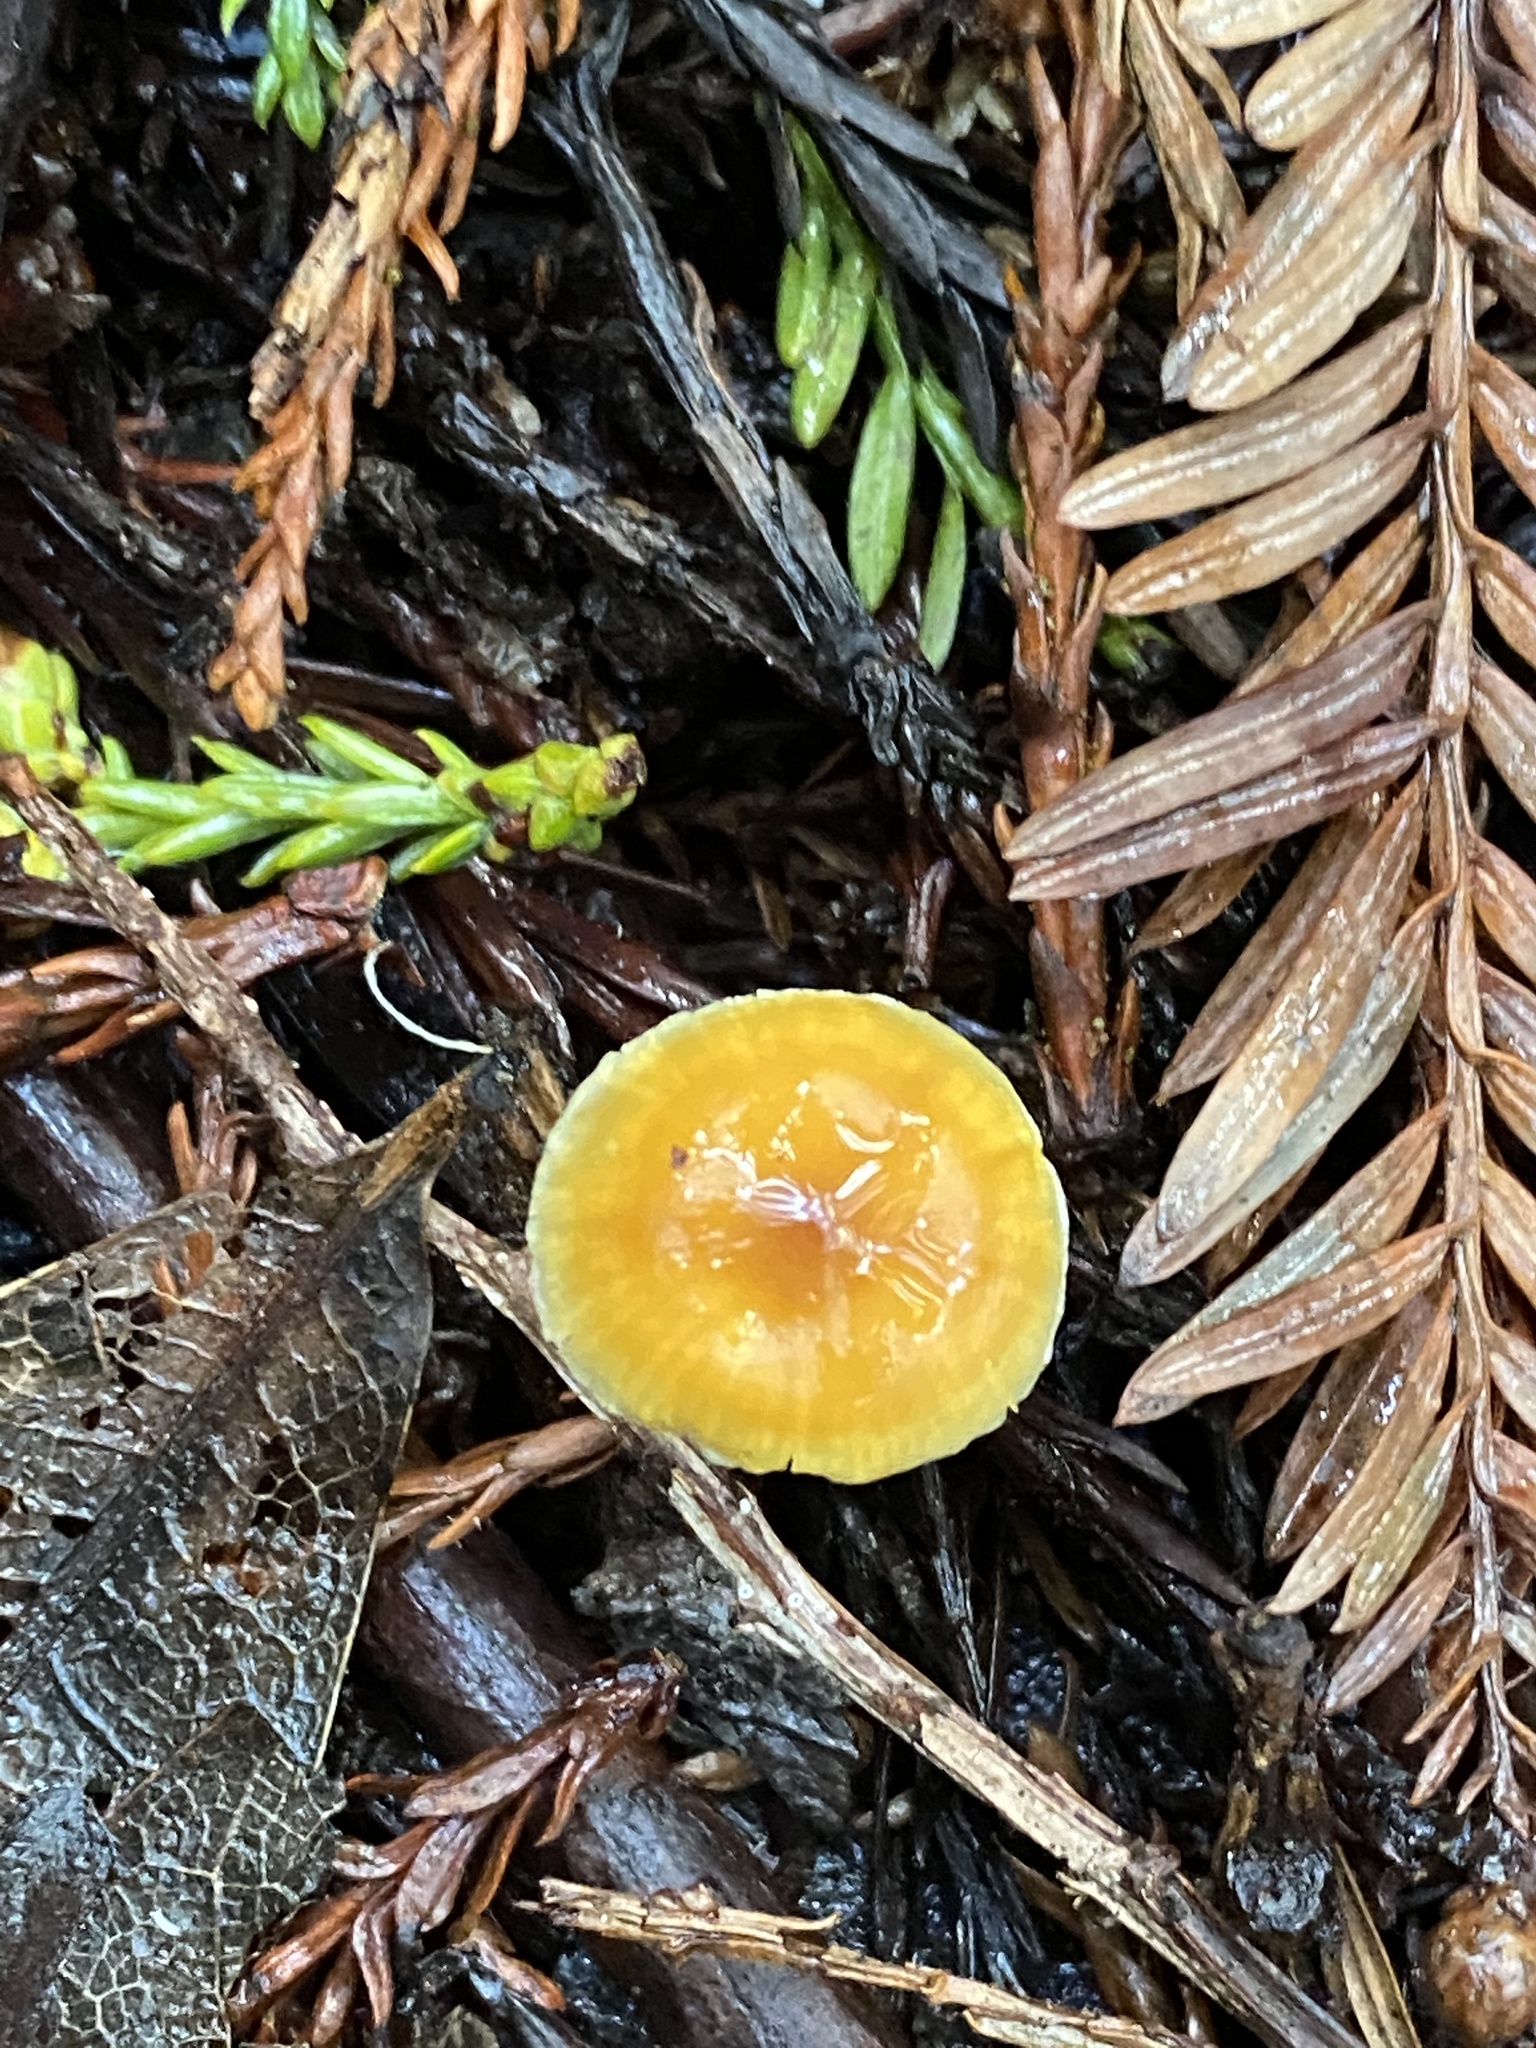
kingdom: Fungi
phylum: Basidiomycota
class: Agaricomycetes
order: Agaricales
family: Mycenaceae
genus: Xeromphalina
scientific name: Xeromphalina cauticinalis
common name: Pinelitter gingertail
